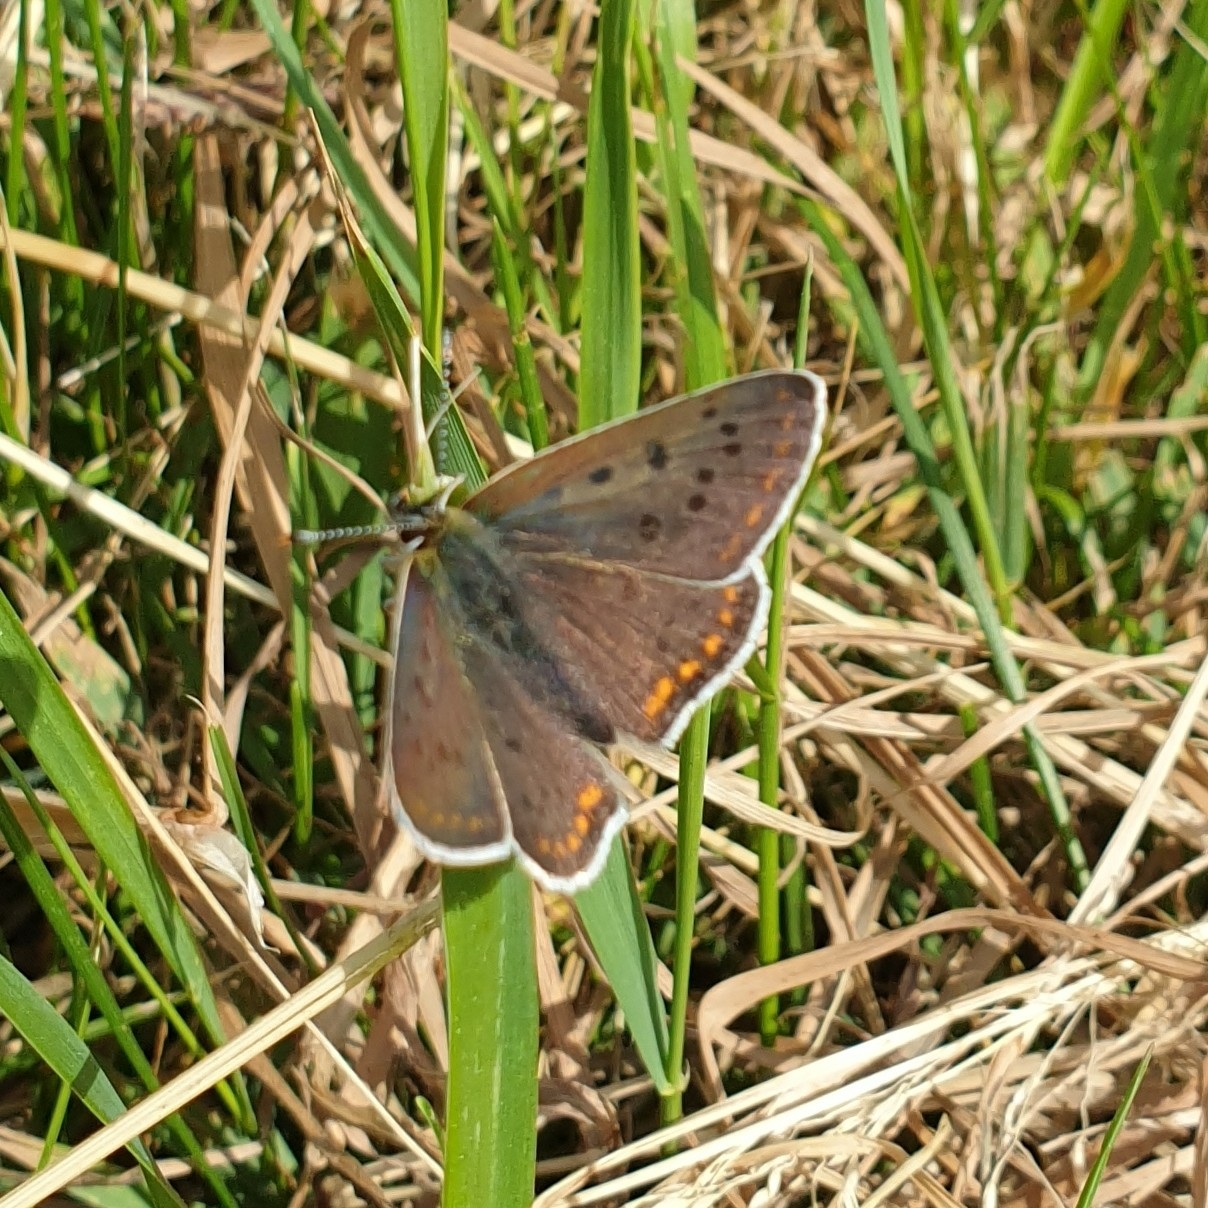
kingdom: Animalia
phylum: Arthropoda
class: Insecta
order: Lepidoptera
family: Lycaenidae
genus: Loweia
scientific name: Loweia tityrus
